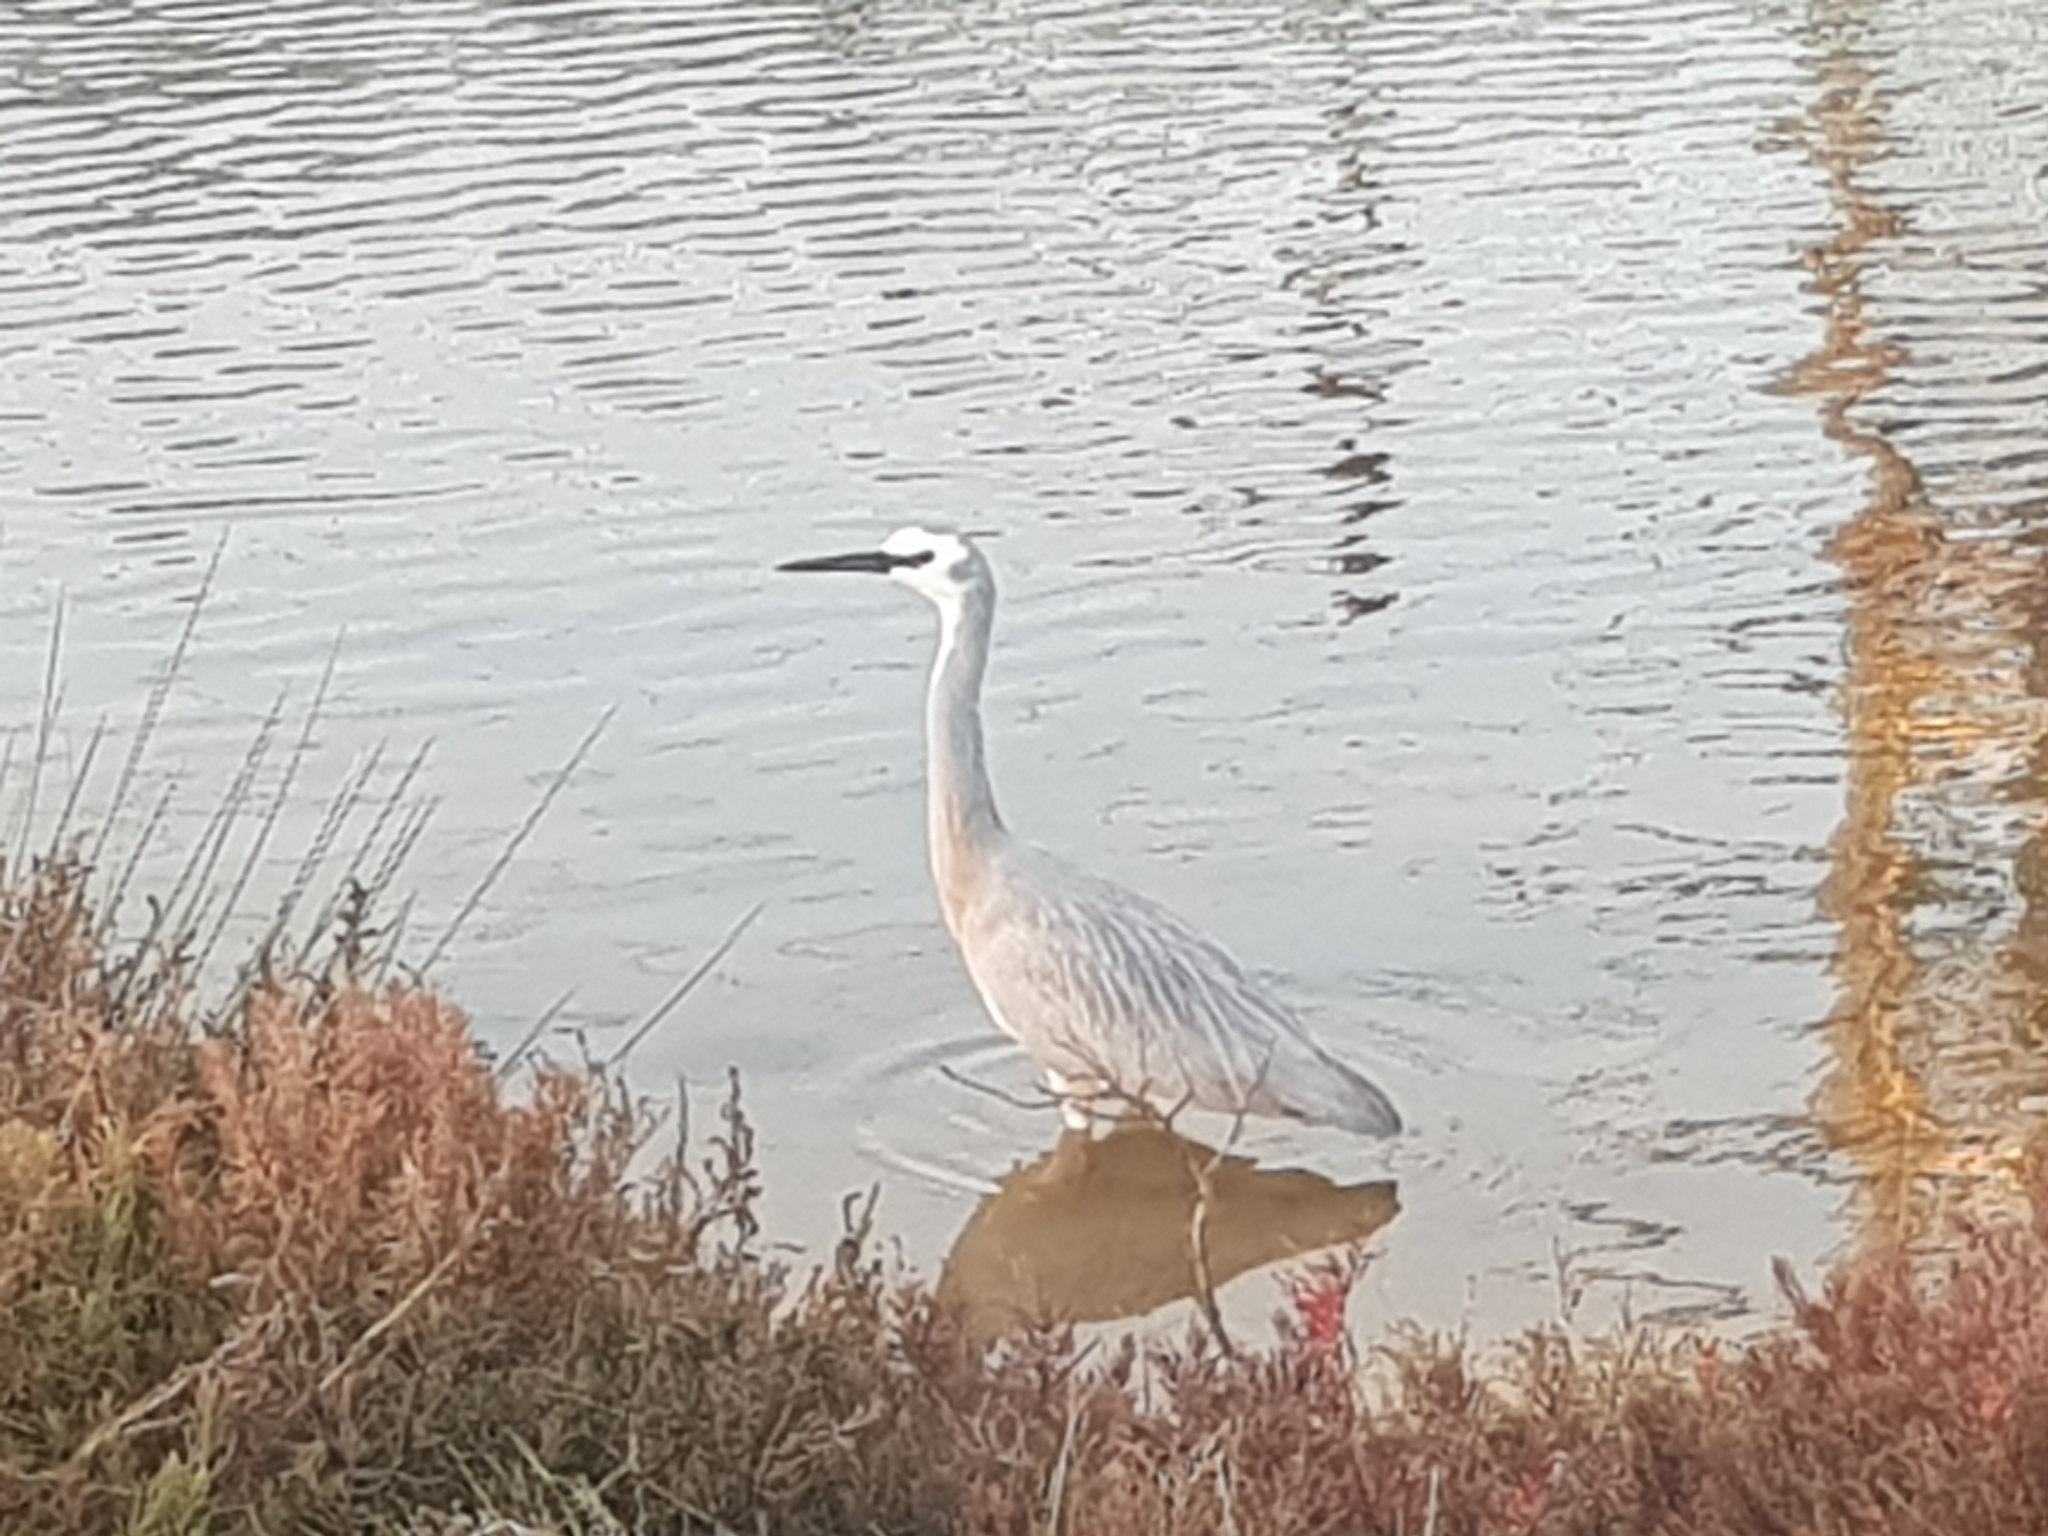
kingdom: Animalia
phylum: Chordata
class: Aves
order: Pelecaniformes
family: Ardeidae
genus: Egretta
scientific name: Egretta novaehollandiae
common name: White-faced heron
